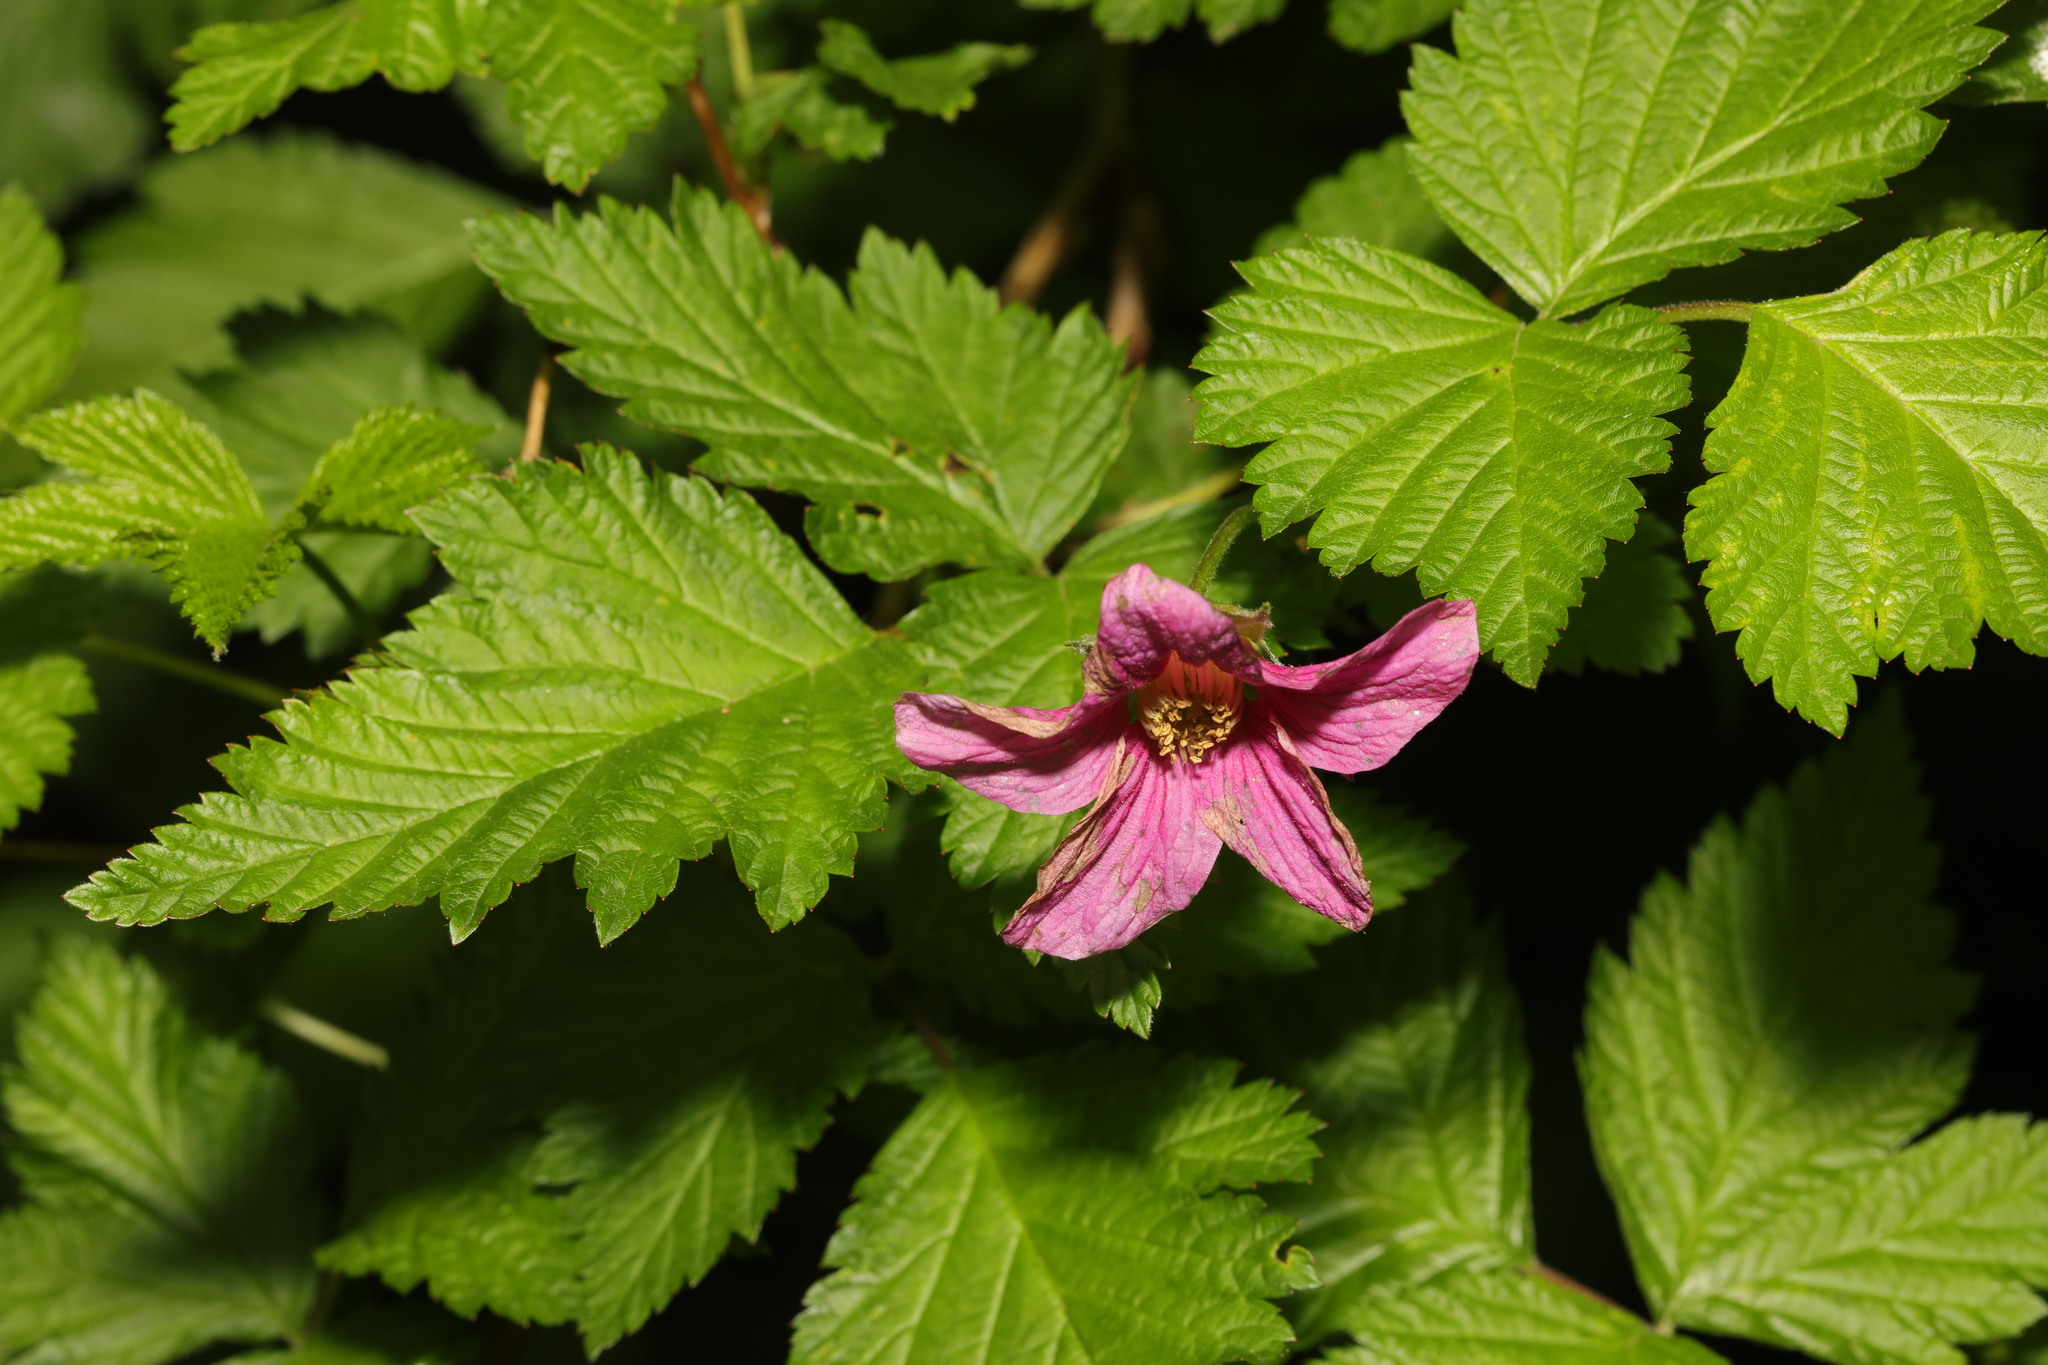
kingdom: Plantae
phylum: Tracheophyta
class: Magnoliopsida
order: Rosales
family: Rosaceae
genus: Rubus
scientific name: Rubus spectabilis
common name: Salmonberry
